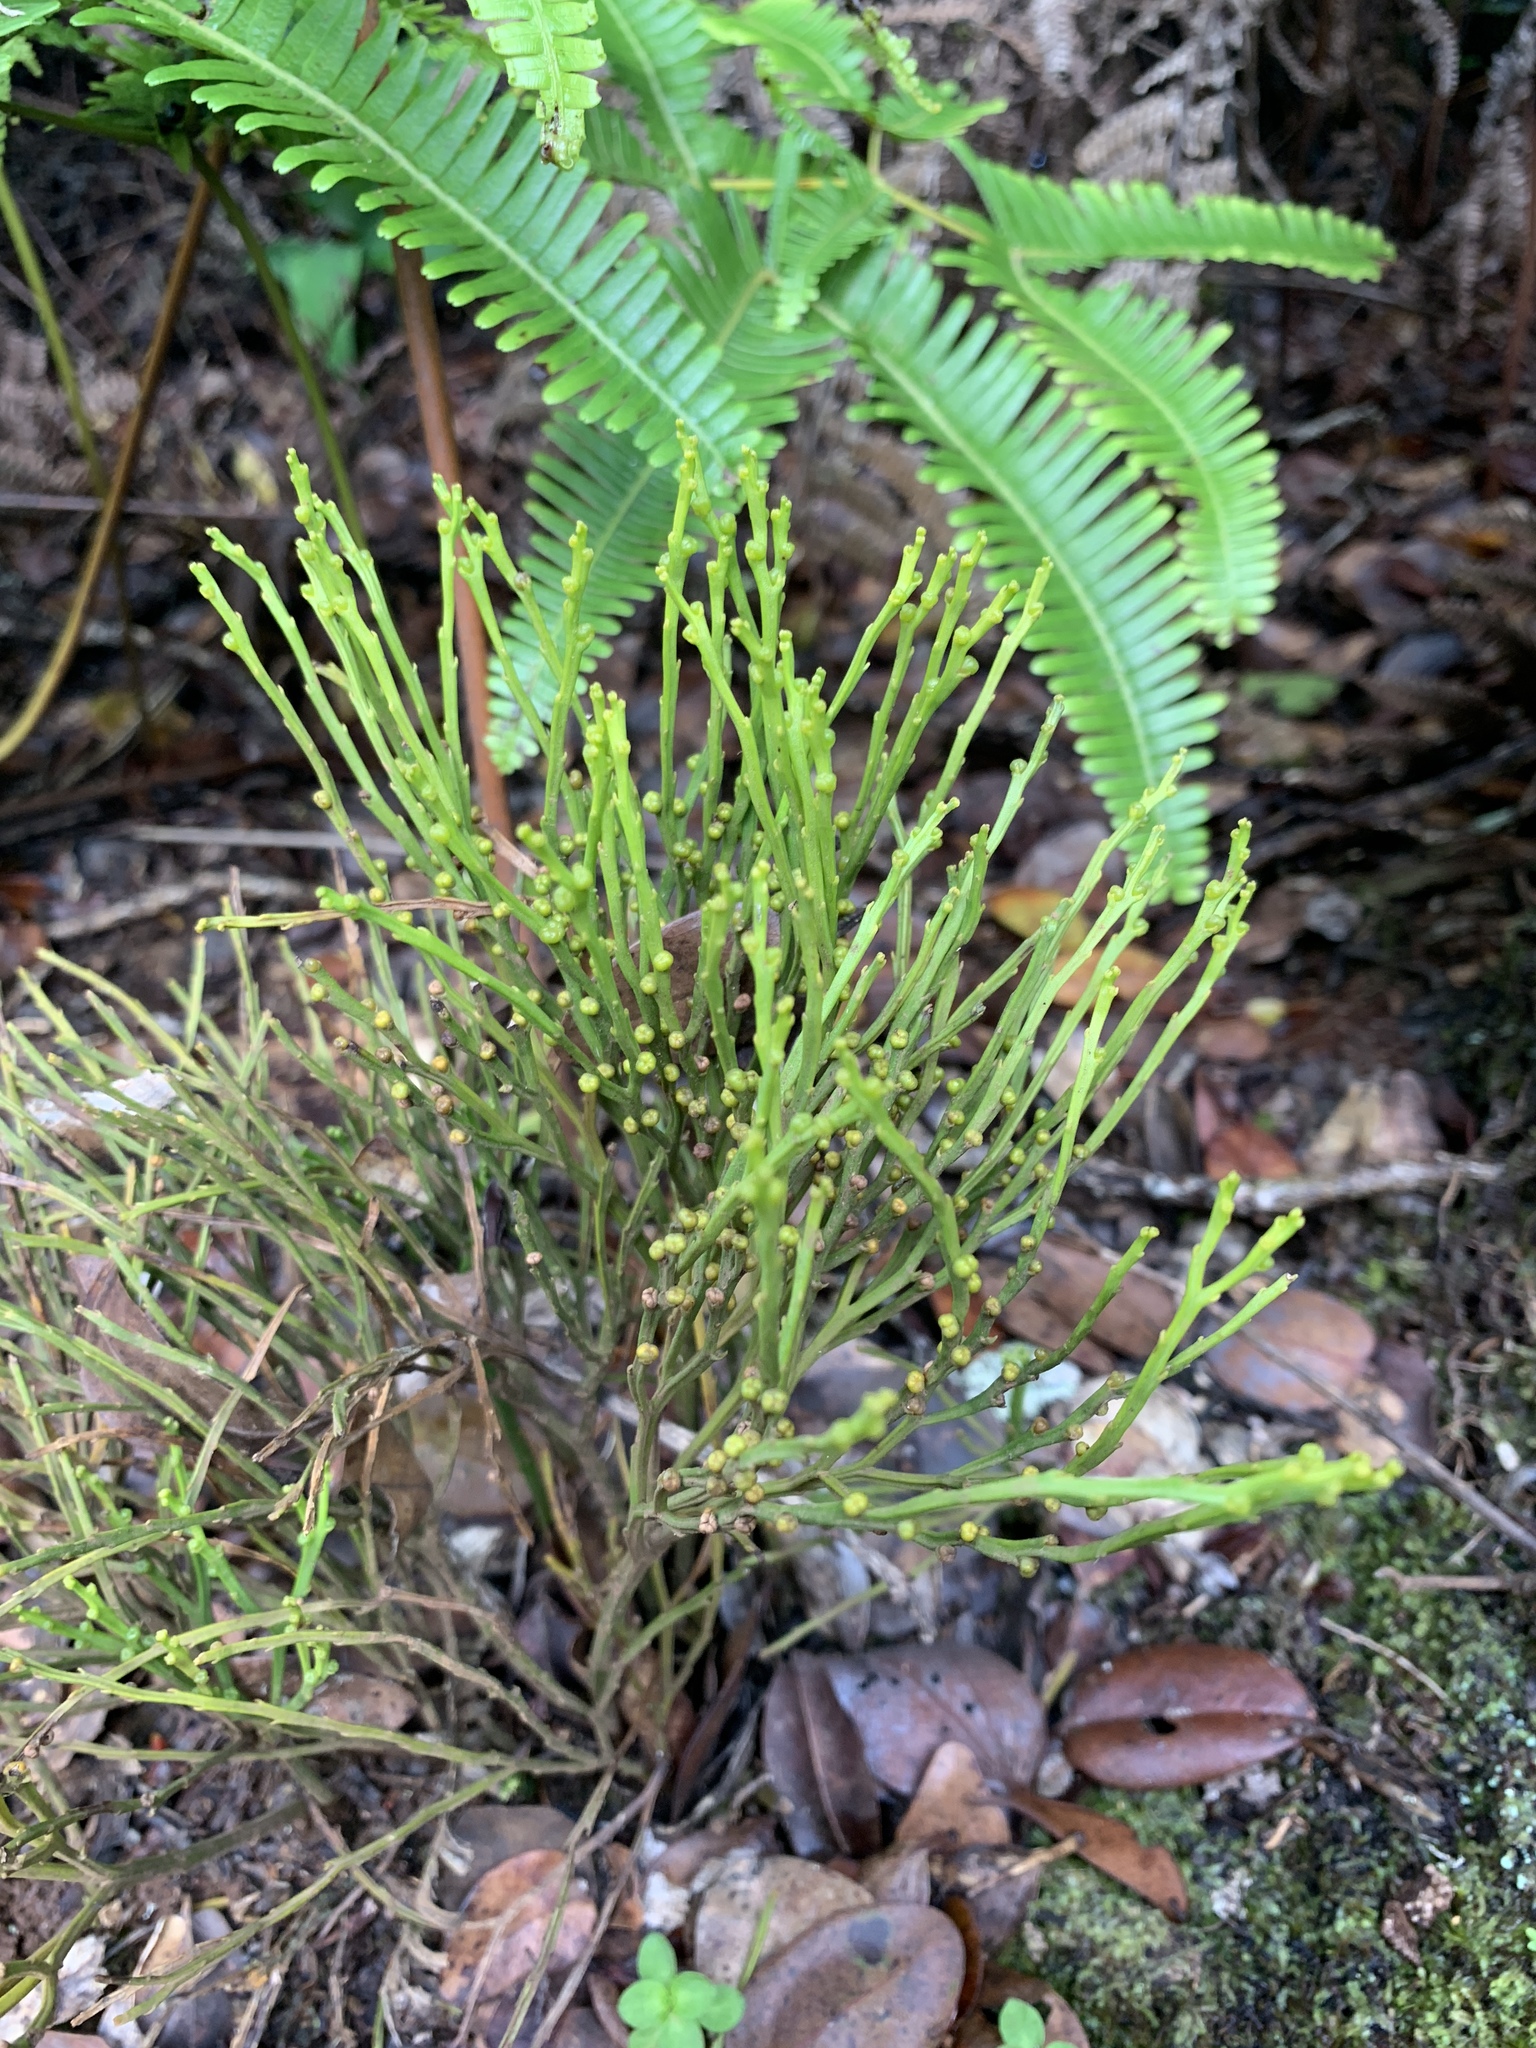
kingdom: Plantae
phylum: Tracheophyta
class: Polypodiopsida
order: Psilotales
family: Psilotaceae
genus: Psilotum
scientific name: Psilotum nudum
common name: Skeleton fork fern
